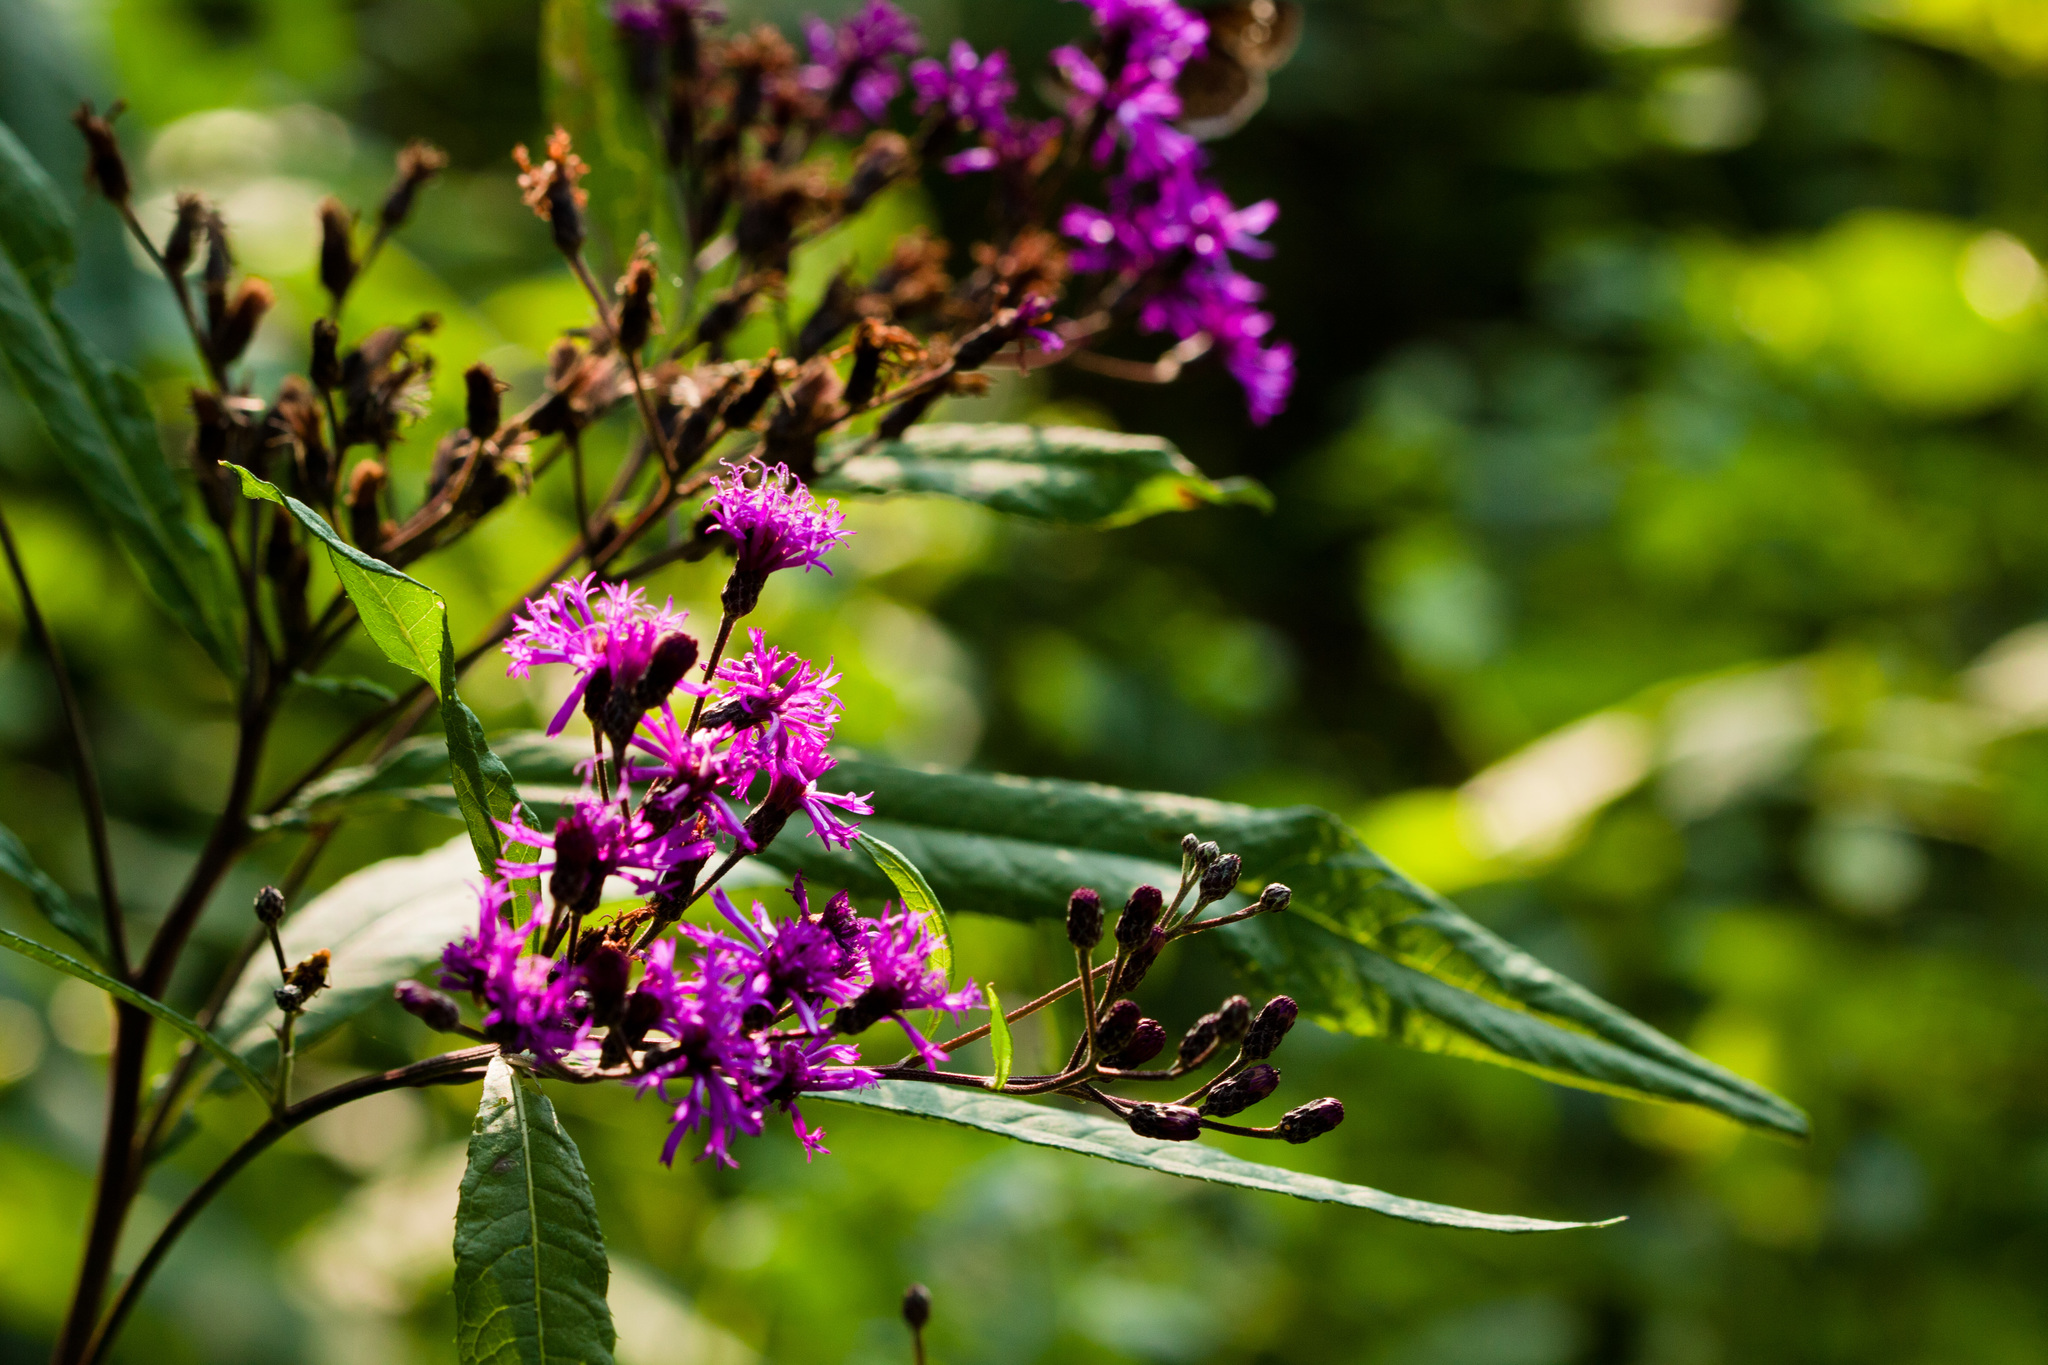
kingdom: Plantae
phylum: Tracheophyta
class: Magnoliopsida
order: Asterales
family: Asteraceae
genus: Vernonia
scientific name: Vernonia gigantea
